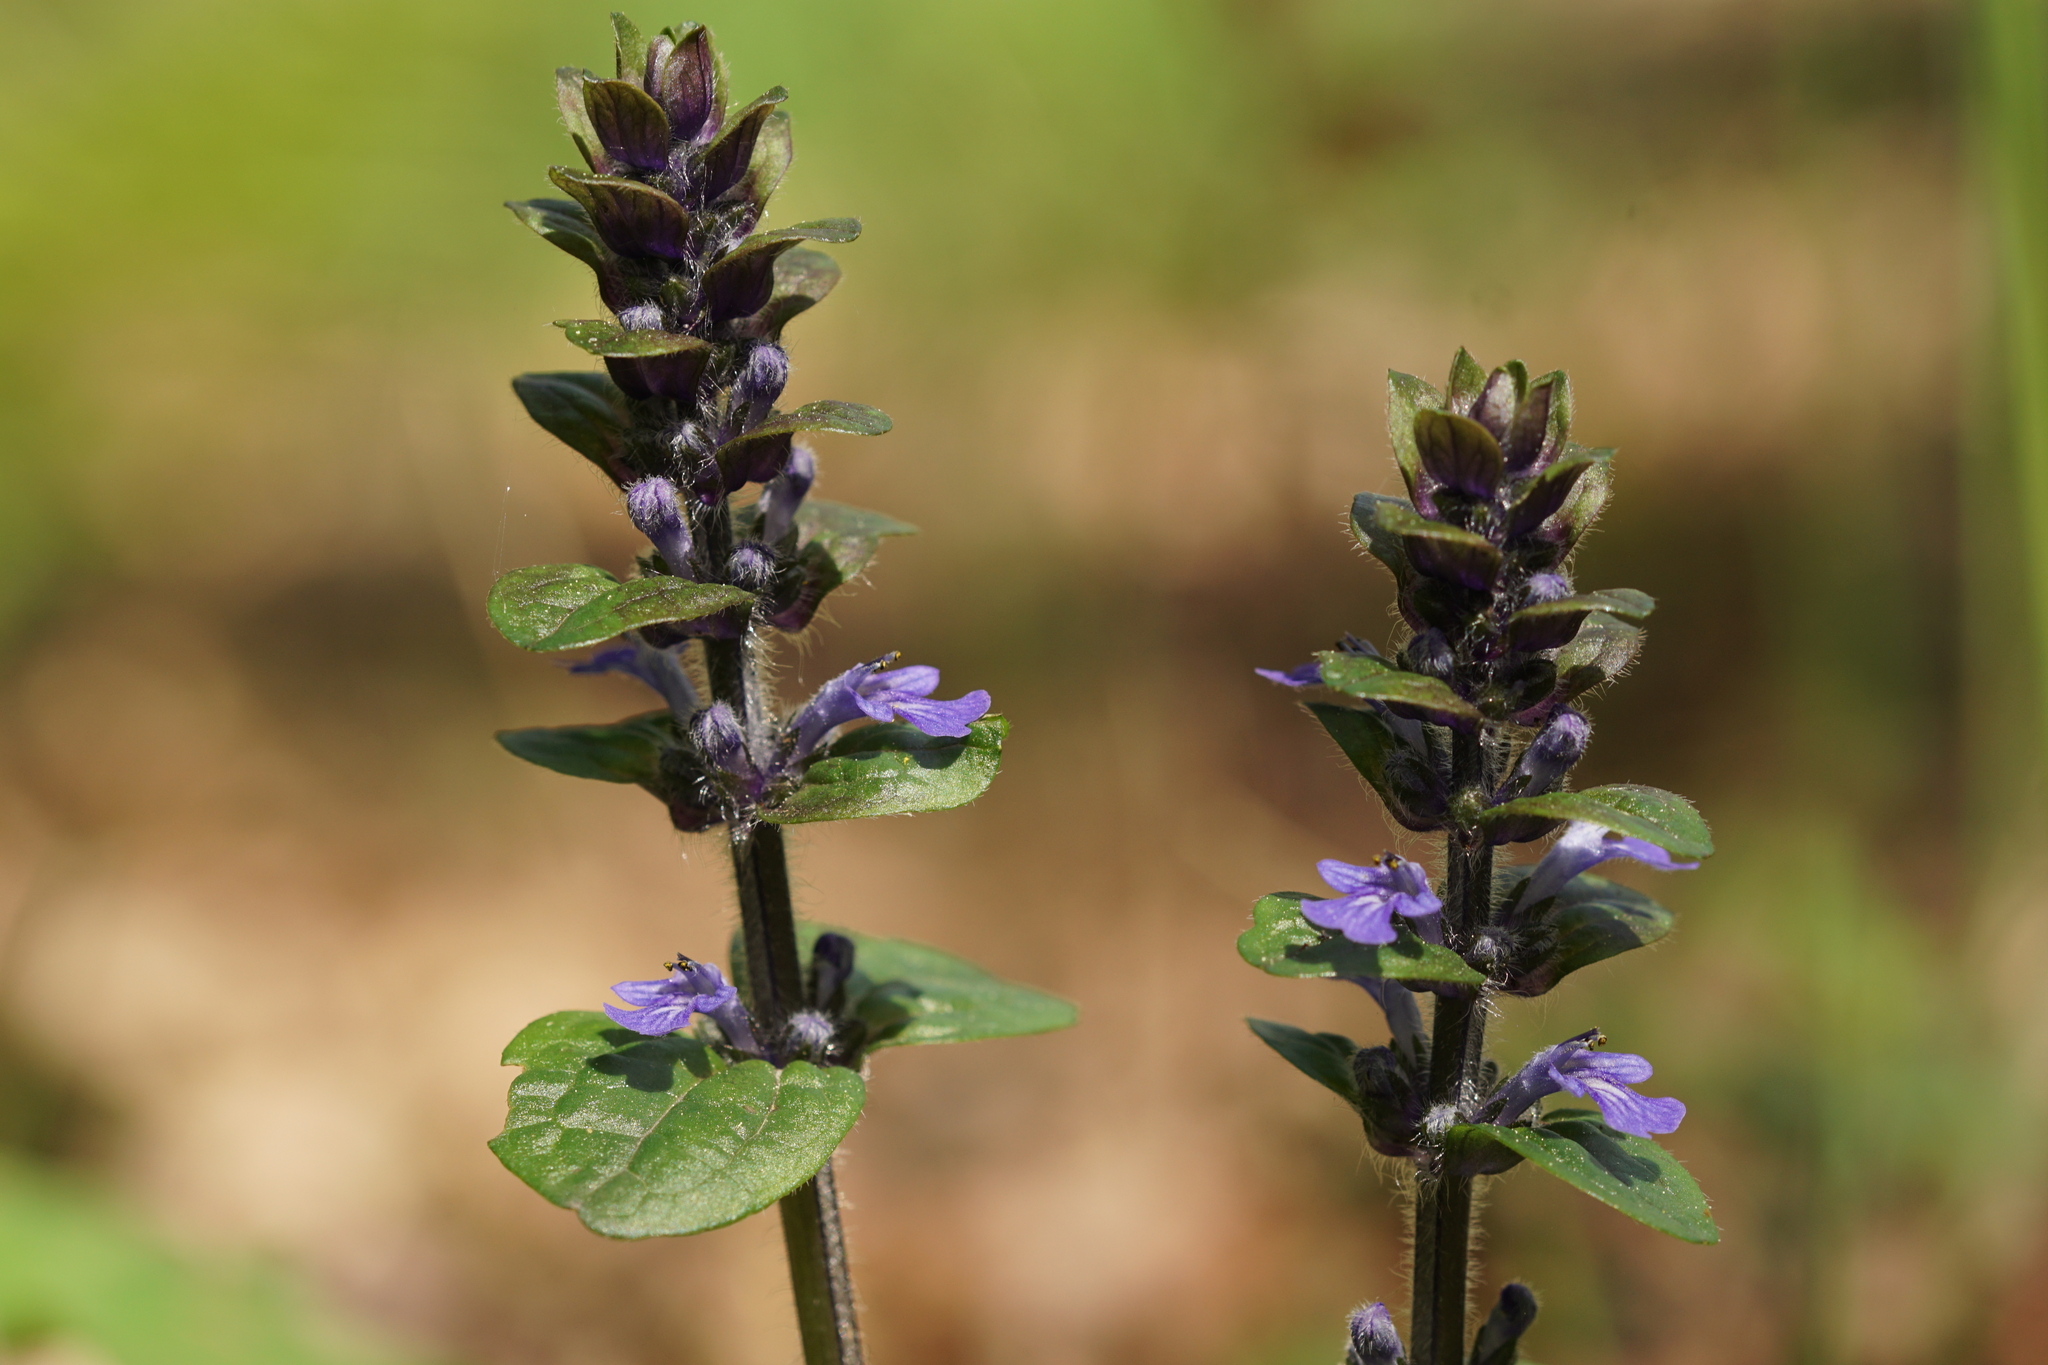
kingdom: Plantae
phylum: Tracheophyta
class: Magnoliopsida
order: Lamiales
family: Lamiaceae
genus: Ajuga
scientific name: Ajuga reptans
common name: Bugle
